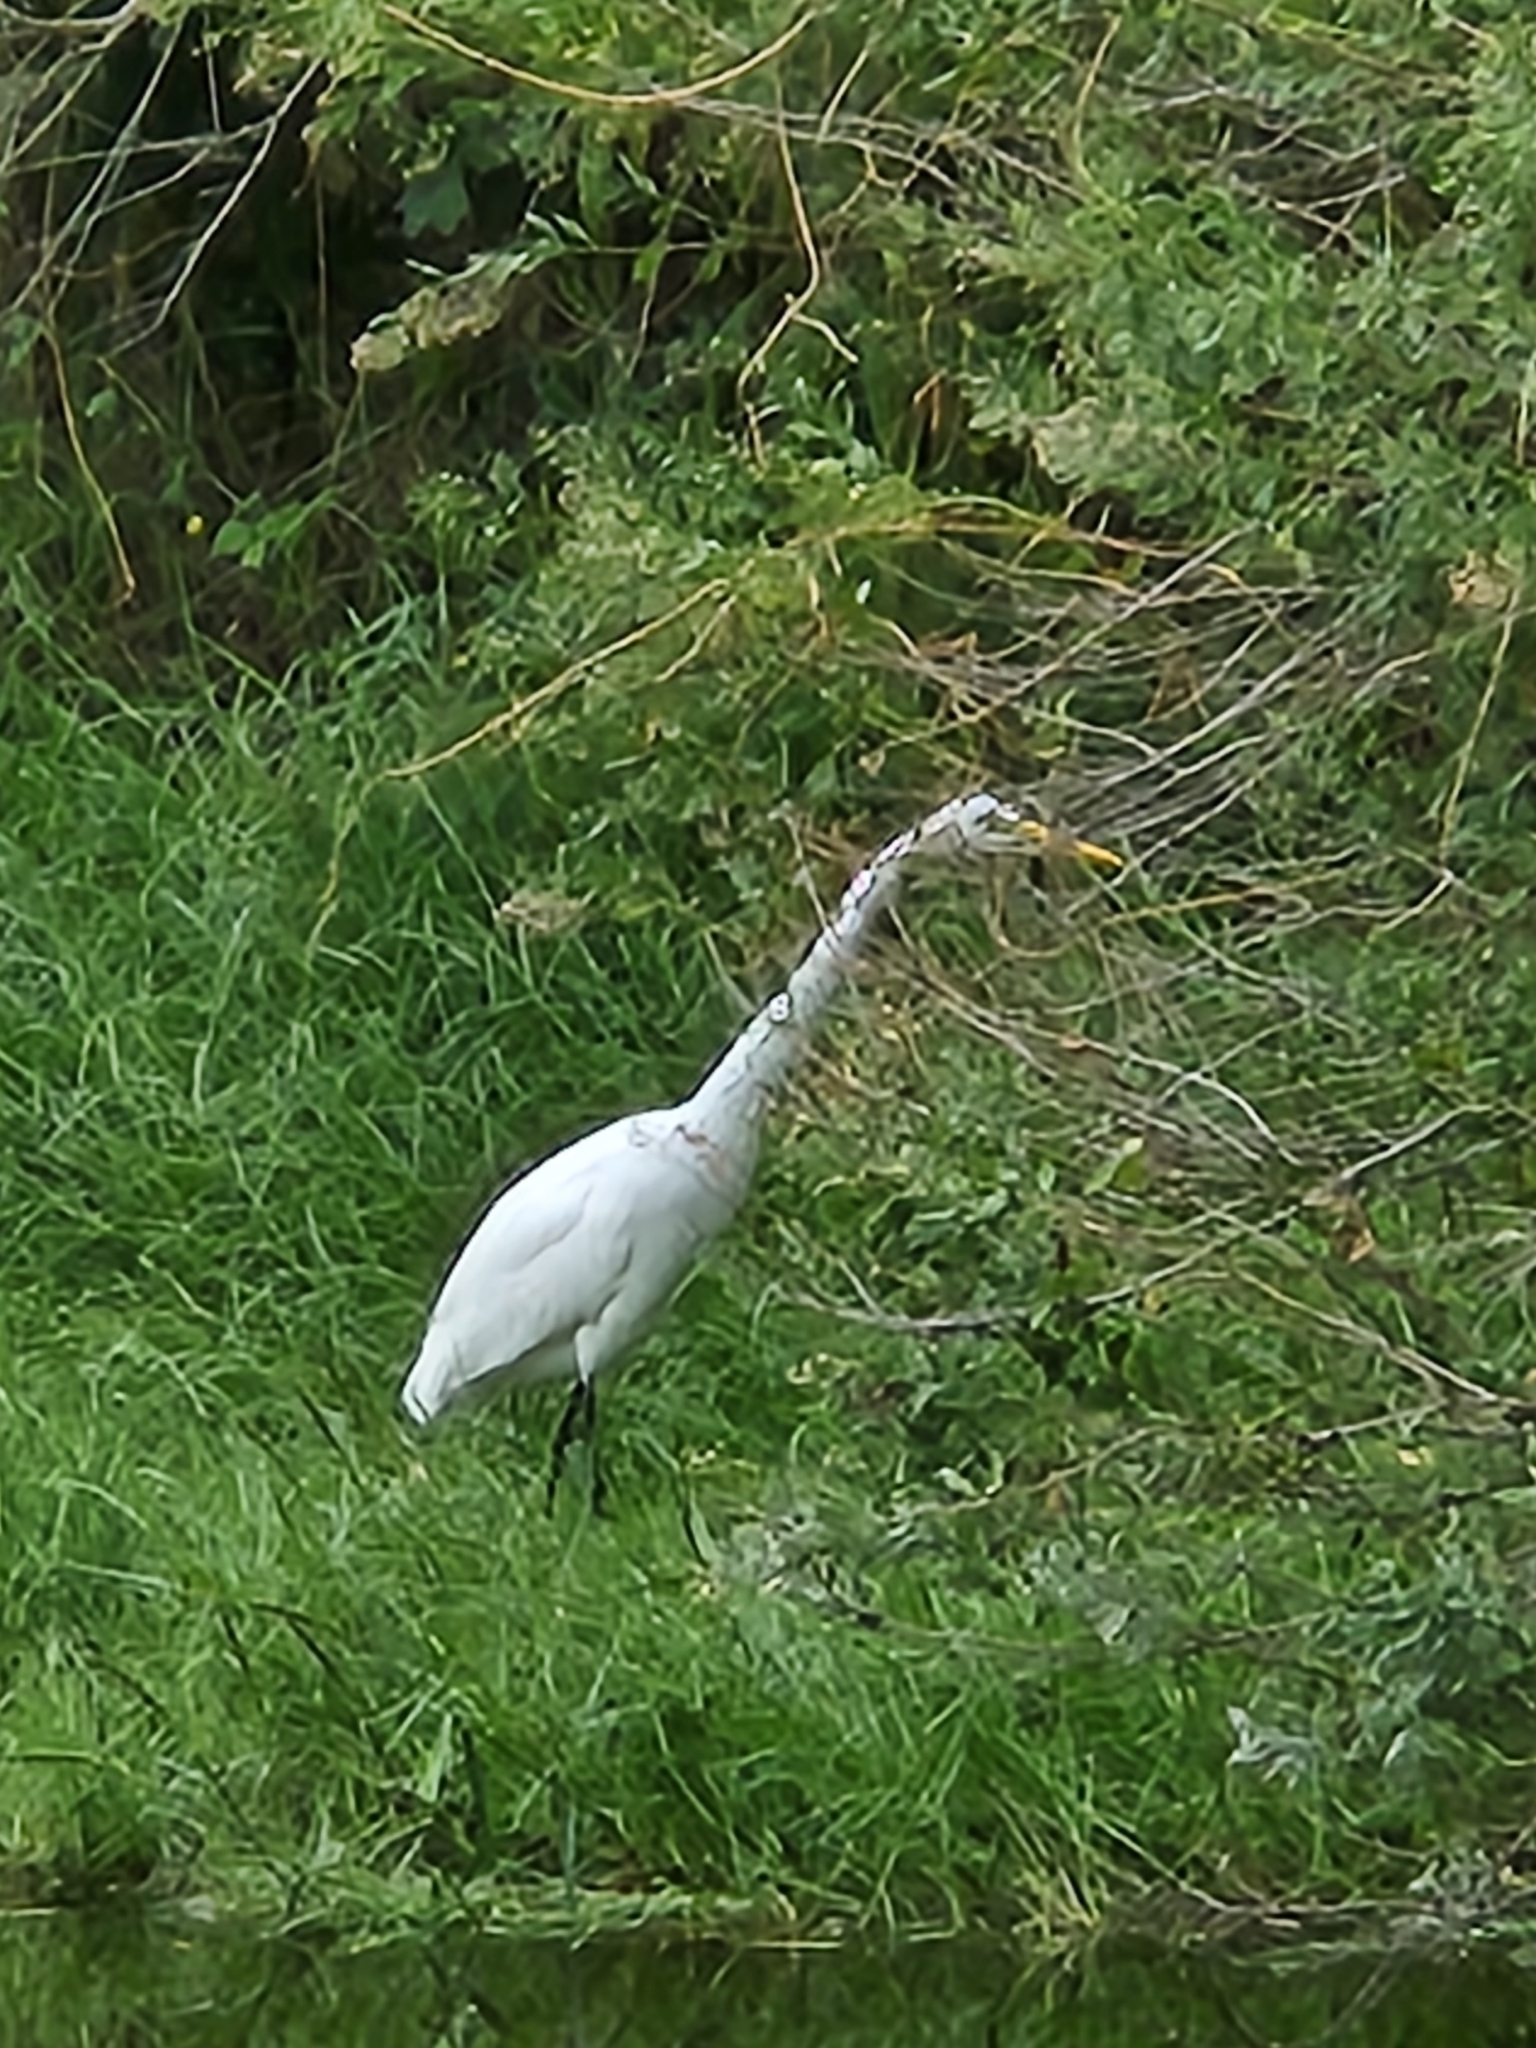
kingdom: Animalia
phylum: Chordata
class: Aves
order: Pelecaniformes
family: Ardeidae
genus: Ardea
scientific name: Ardea alba
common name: Great egret
